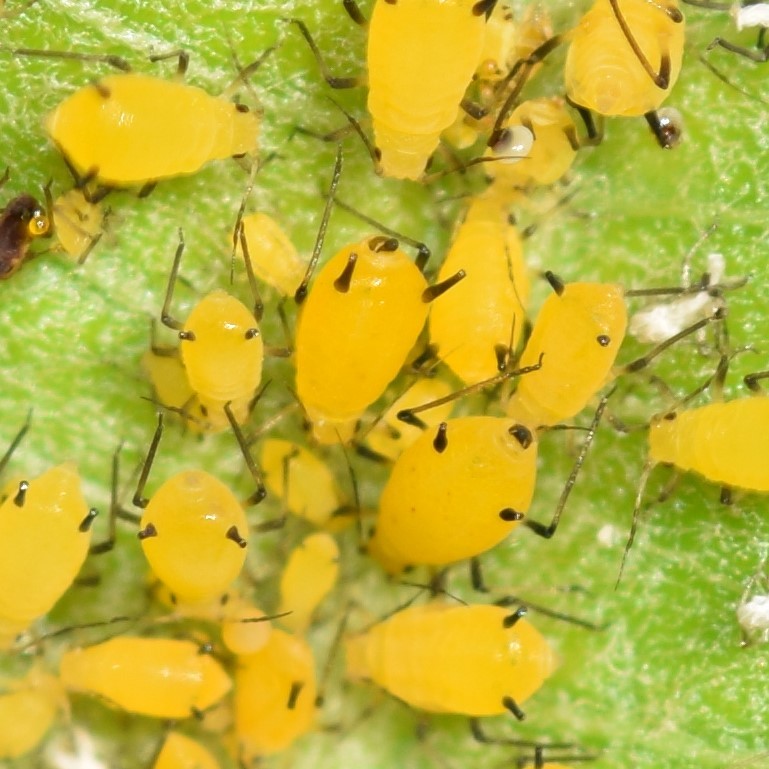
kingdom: Animalia
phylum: Arthropoda
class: Insecta
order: Hemiptera
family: Aphididae
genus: Aphis
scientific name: Aphis nerii
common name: Oleander aphid
